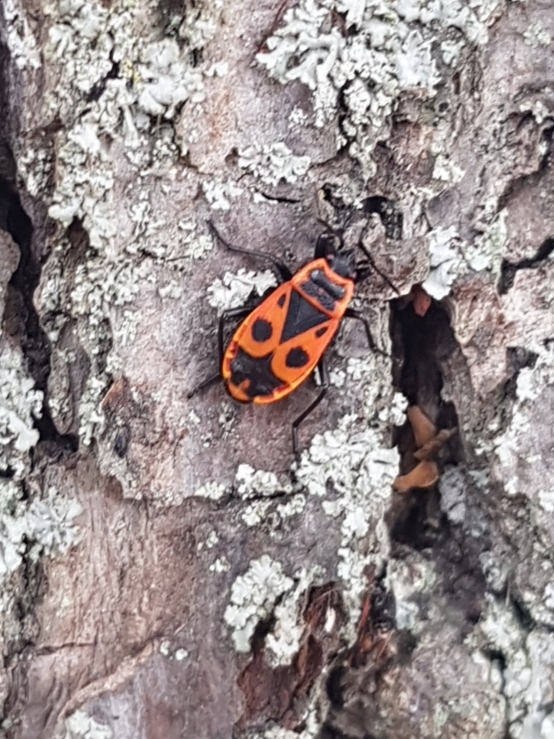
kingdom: Animalia
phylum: Arthropoda
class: Insecta
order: Hemiptera
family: Pyrrhocoridae
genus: Pyrrhocoris
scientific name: Pyrrhocoris apterus
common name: Firebug
